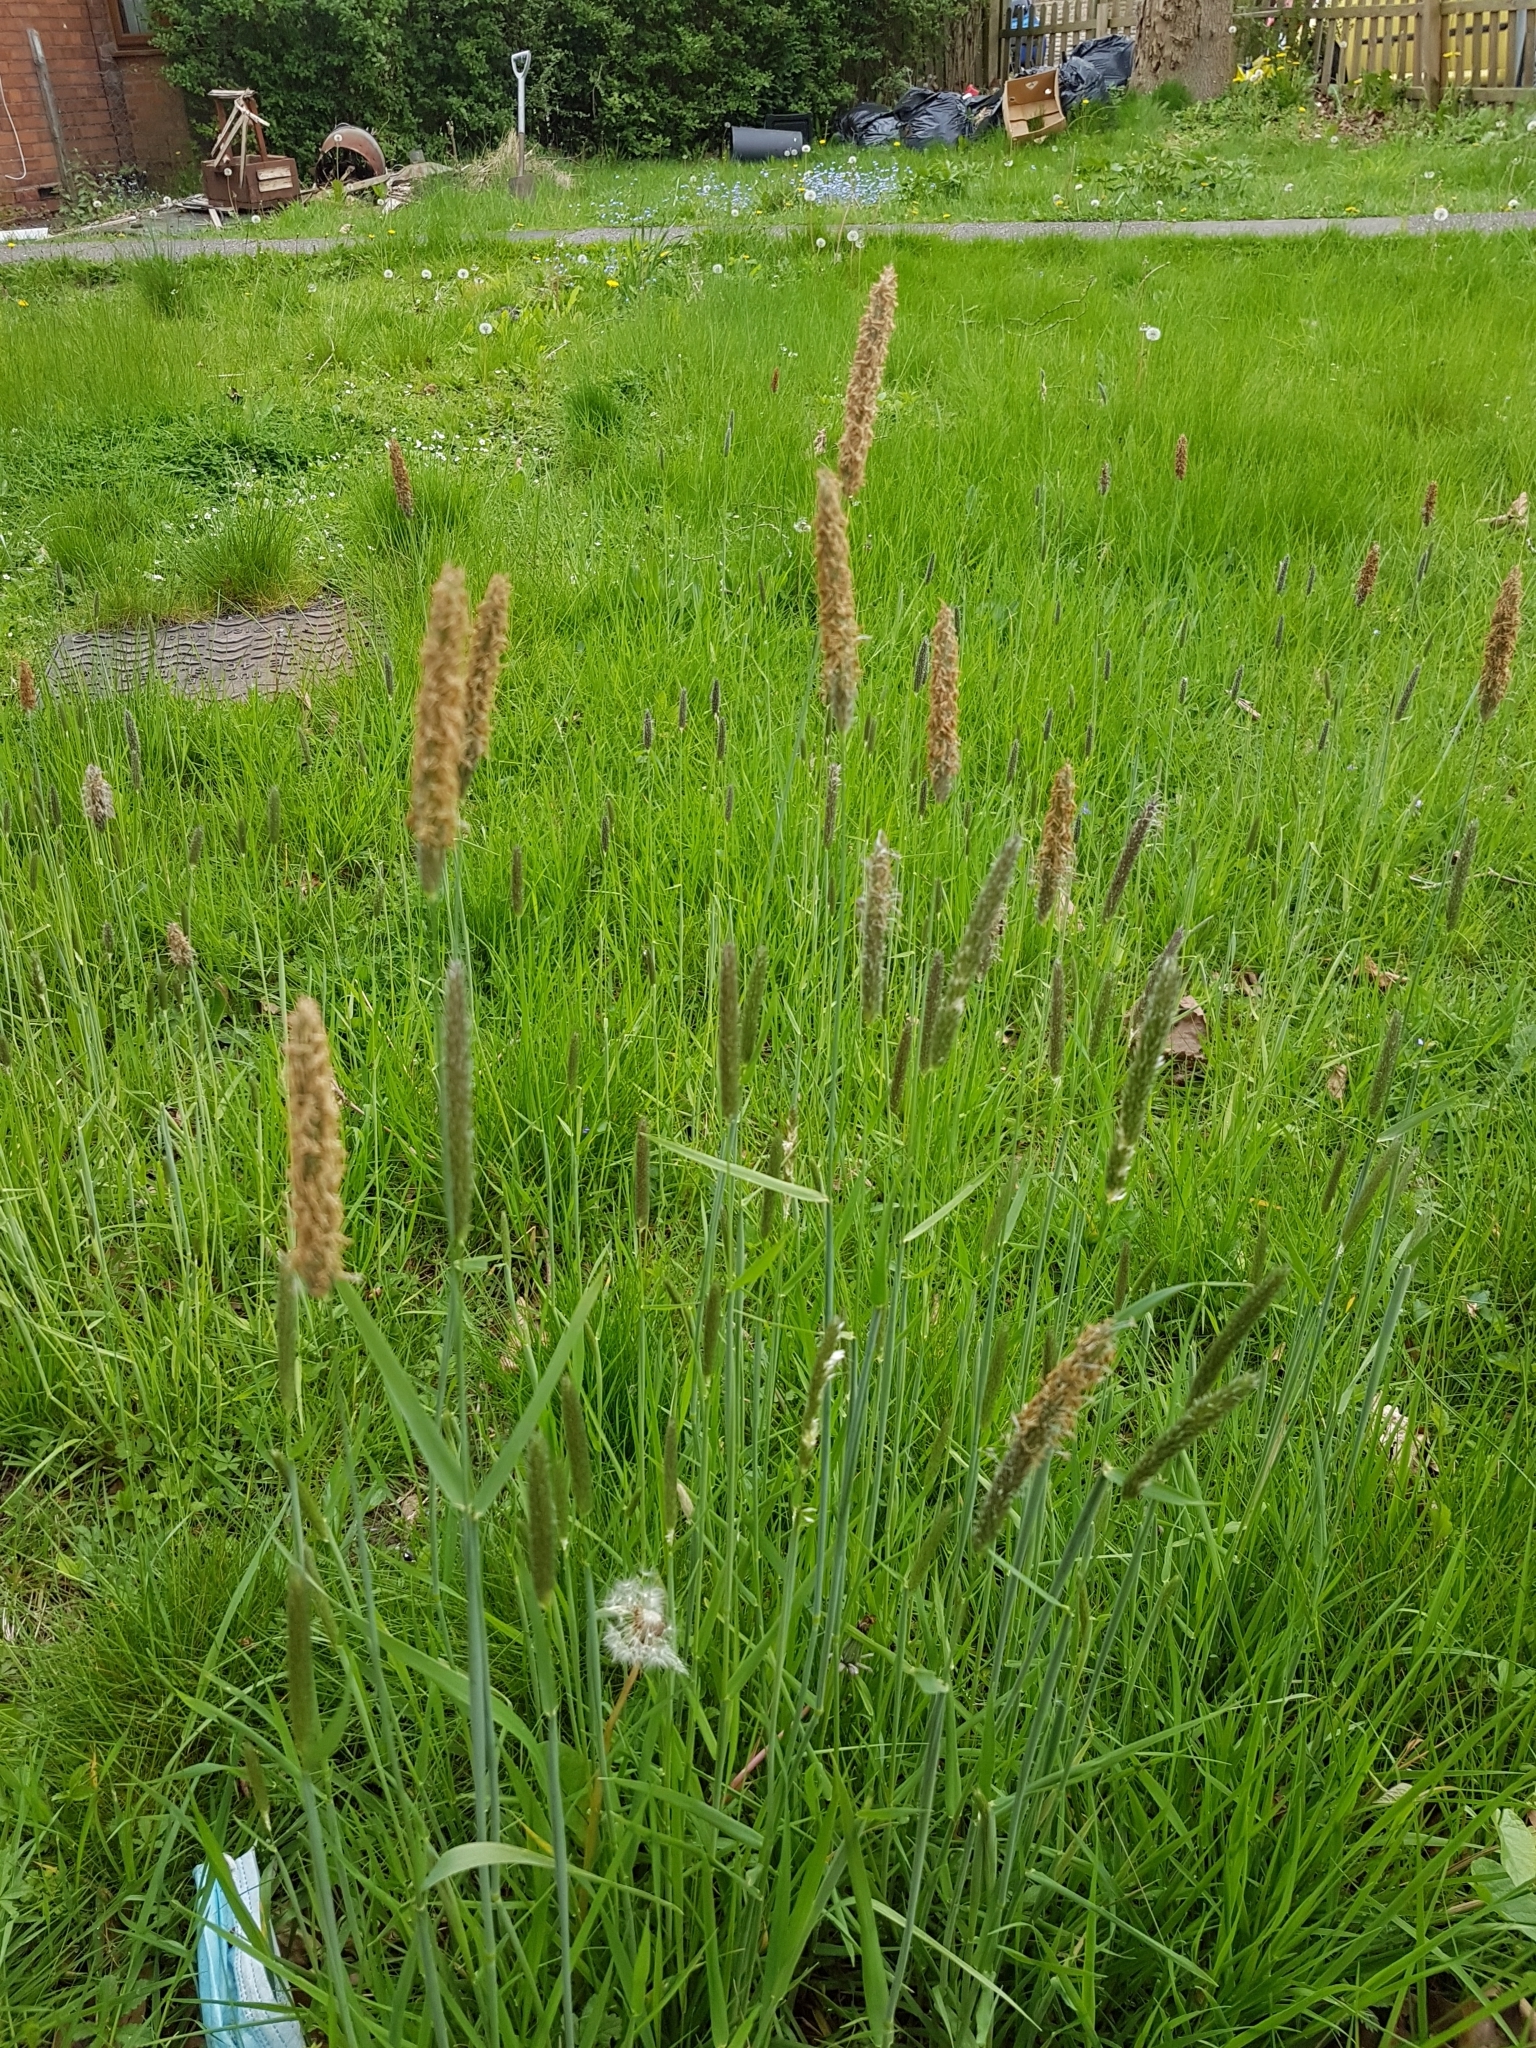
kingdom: Plantae
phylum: Tracheophyta
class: Liliopsida
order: Poales
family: Poaceae
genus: Alopecurus
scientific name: Alopecurus pratensis
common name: Meadow foxtail
